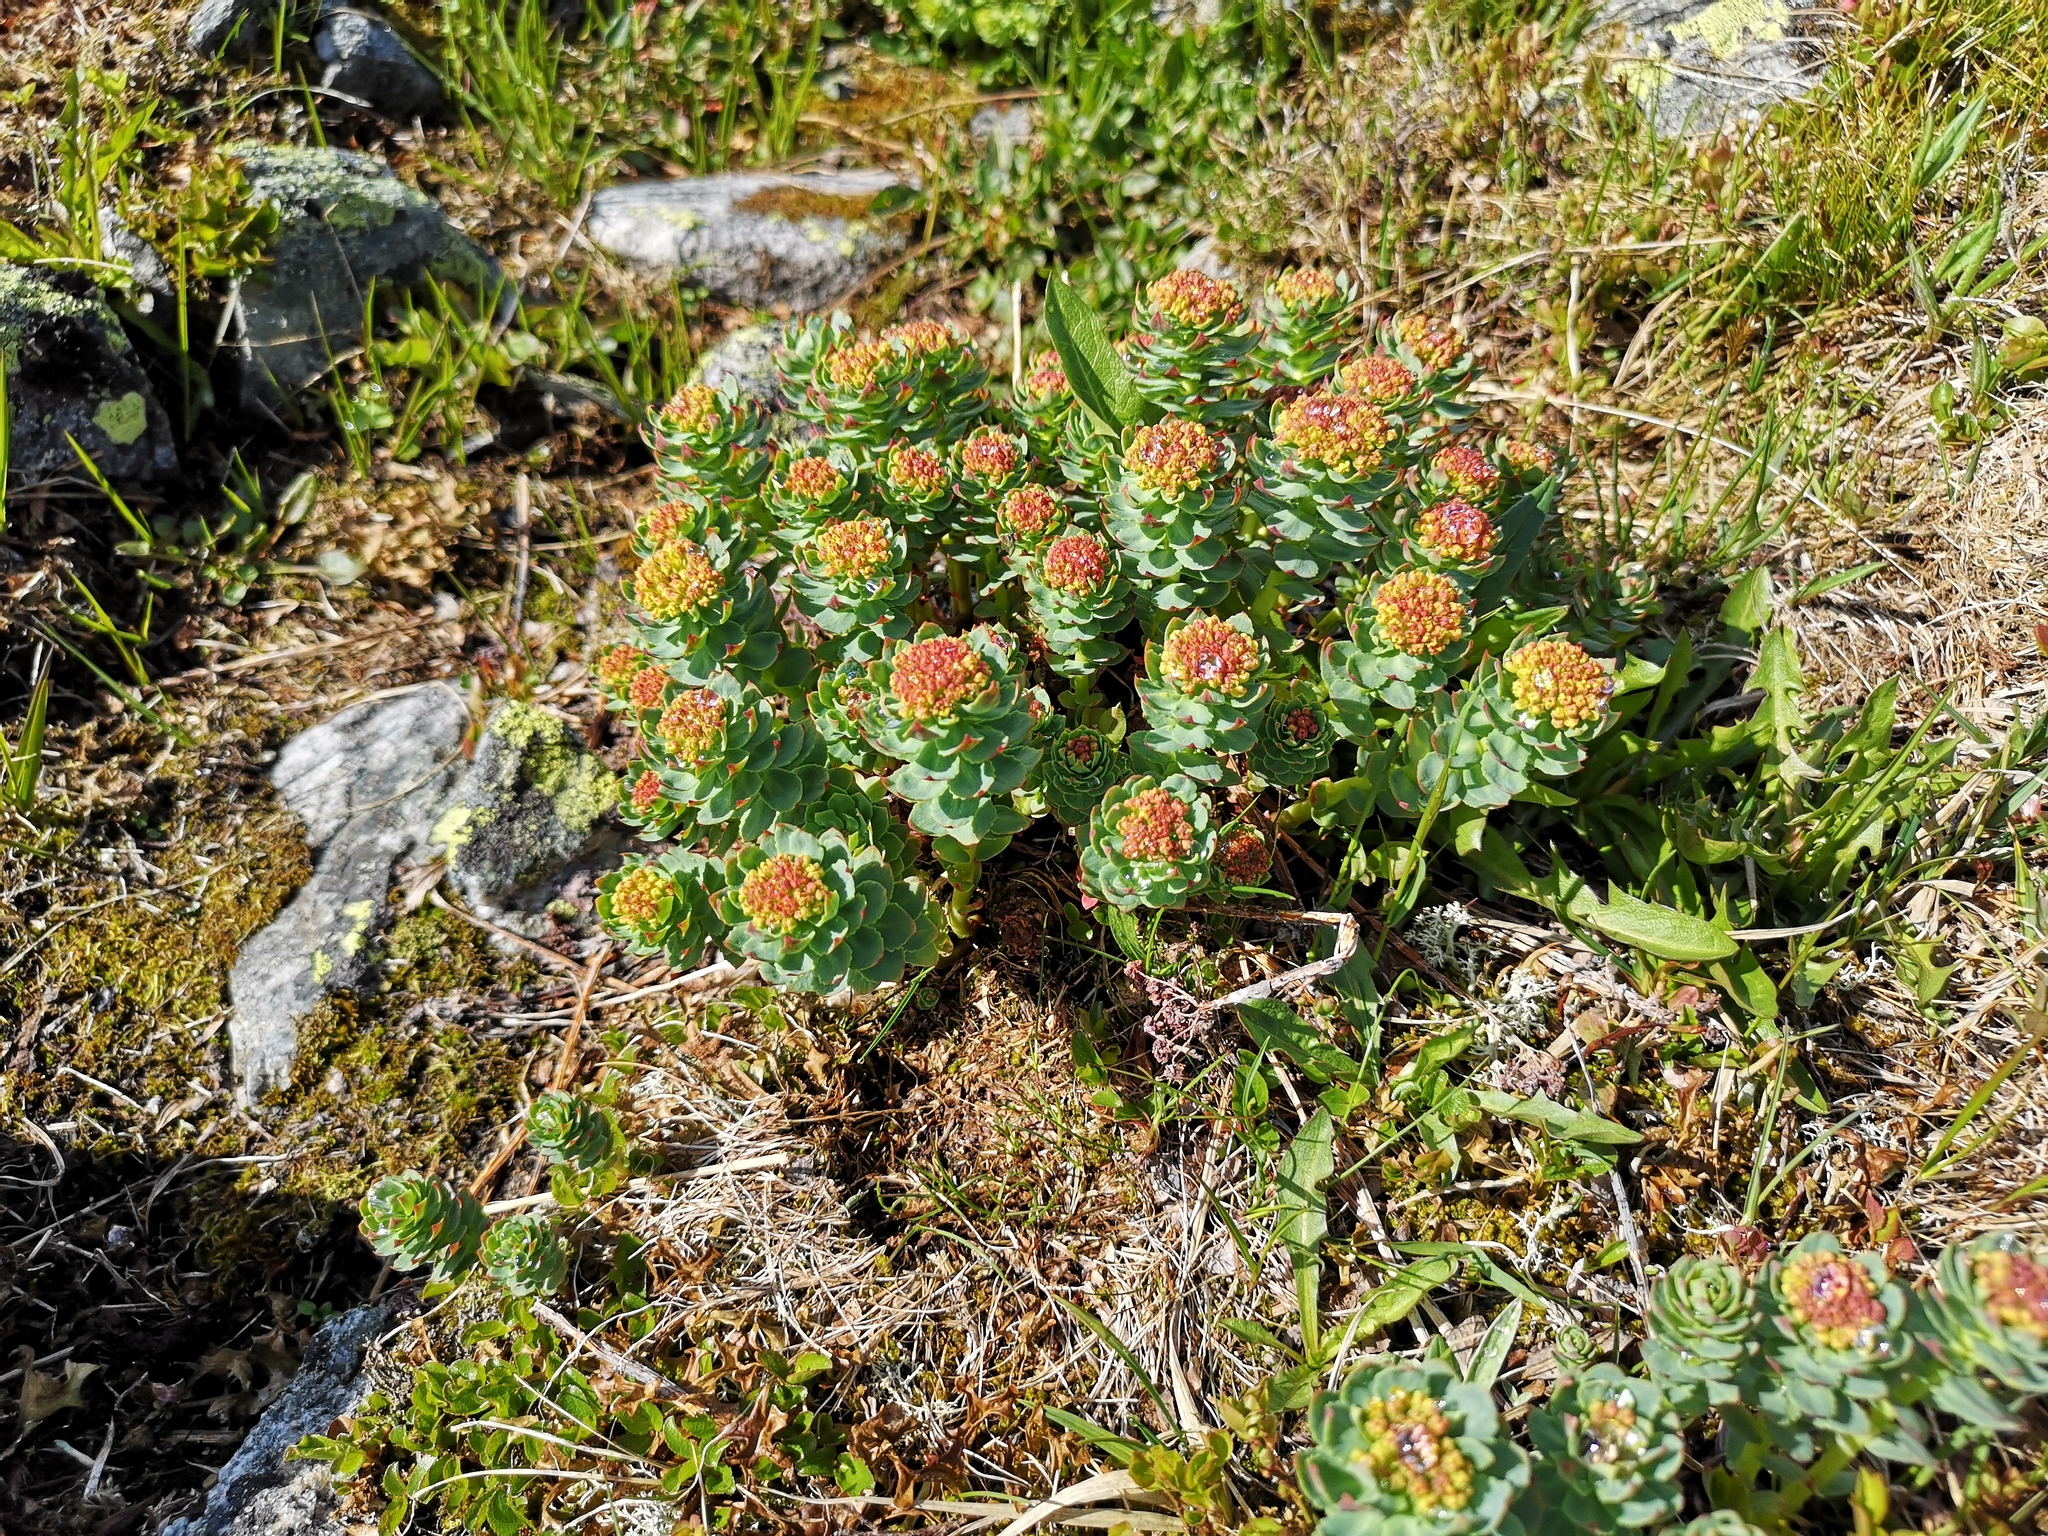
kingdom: Plantae
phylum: Tracheophyta
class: Magnoliopsida
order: Saxifragales
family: Crassulaceae
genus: Rhodiola
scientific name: Rhodiola rosea
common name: Roseroot
